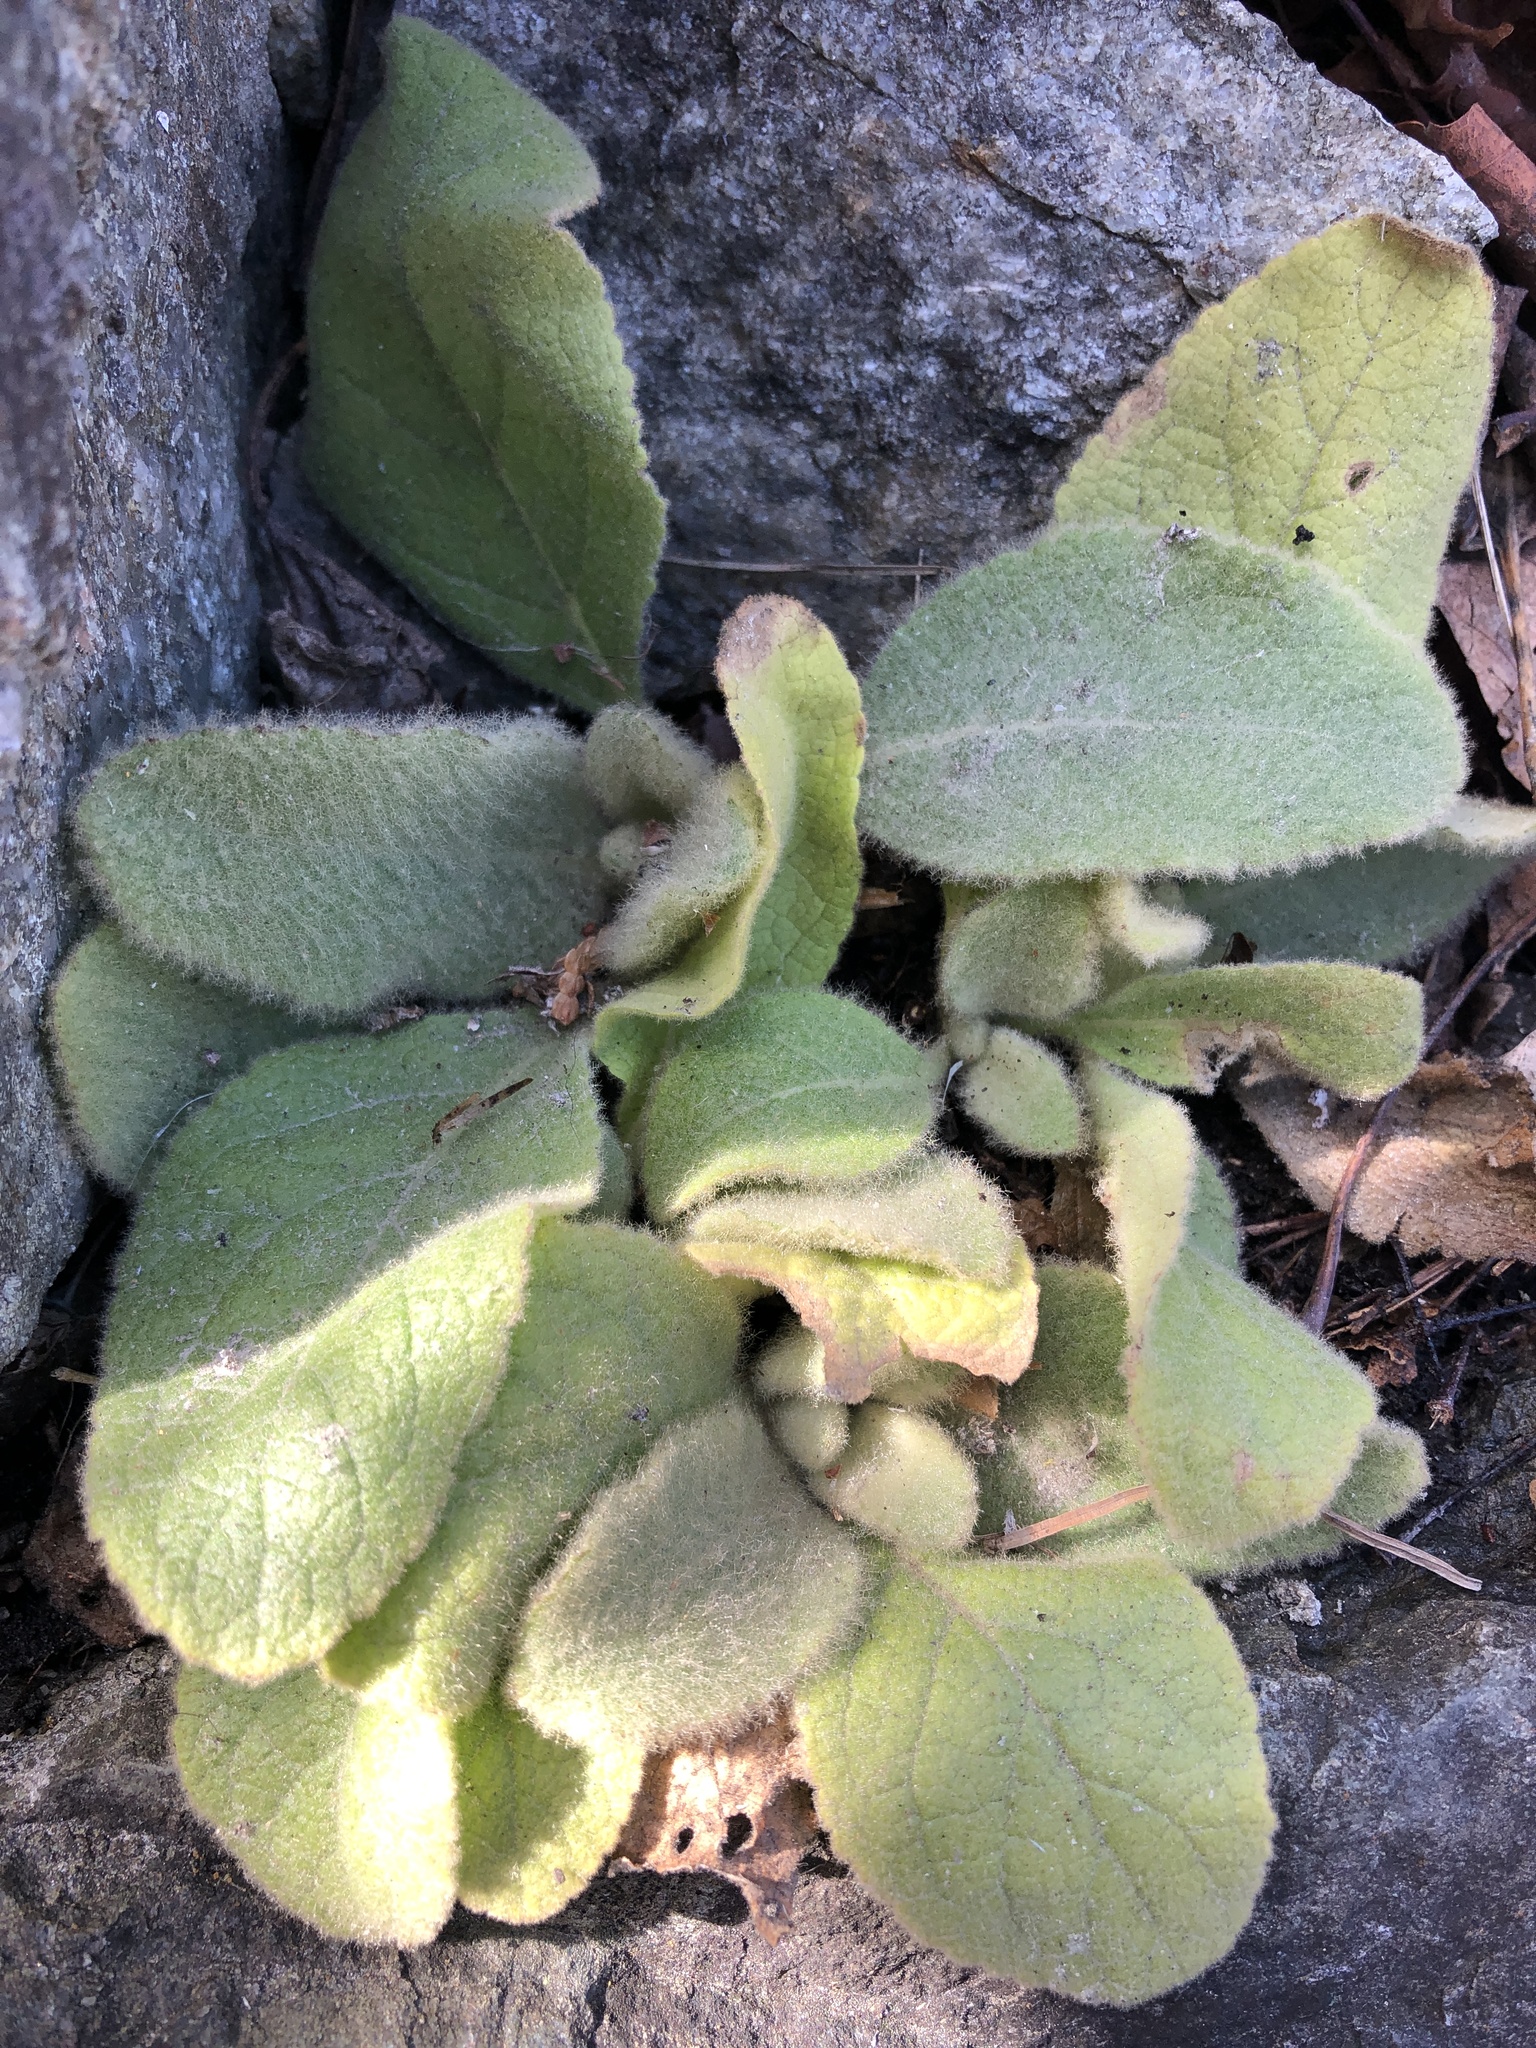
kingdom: Plantae
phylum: Tracheophyta
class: Magnoliopsida
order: Lamiales
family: Scrophulariaceae
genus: Verbascum
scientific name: Verbascum thapsus
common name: Common mullein
